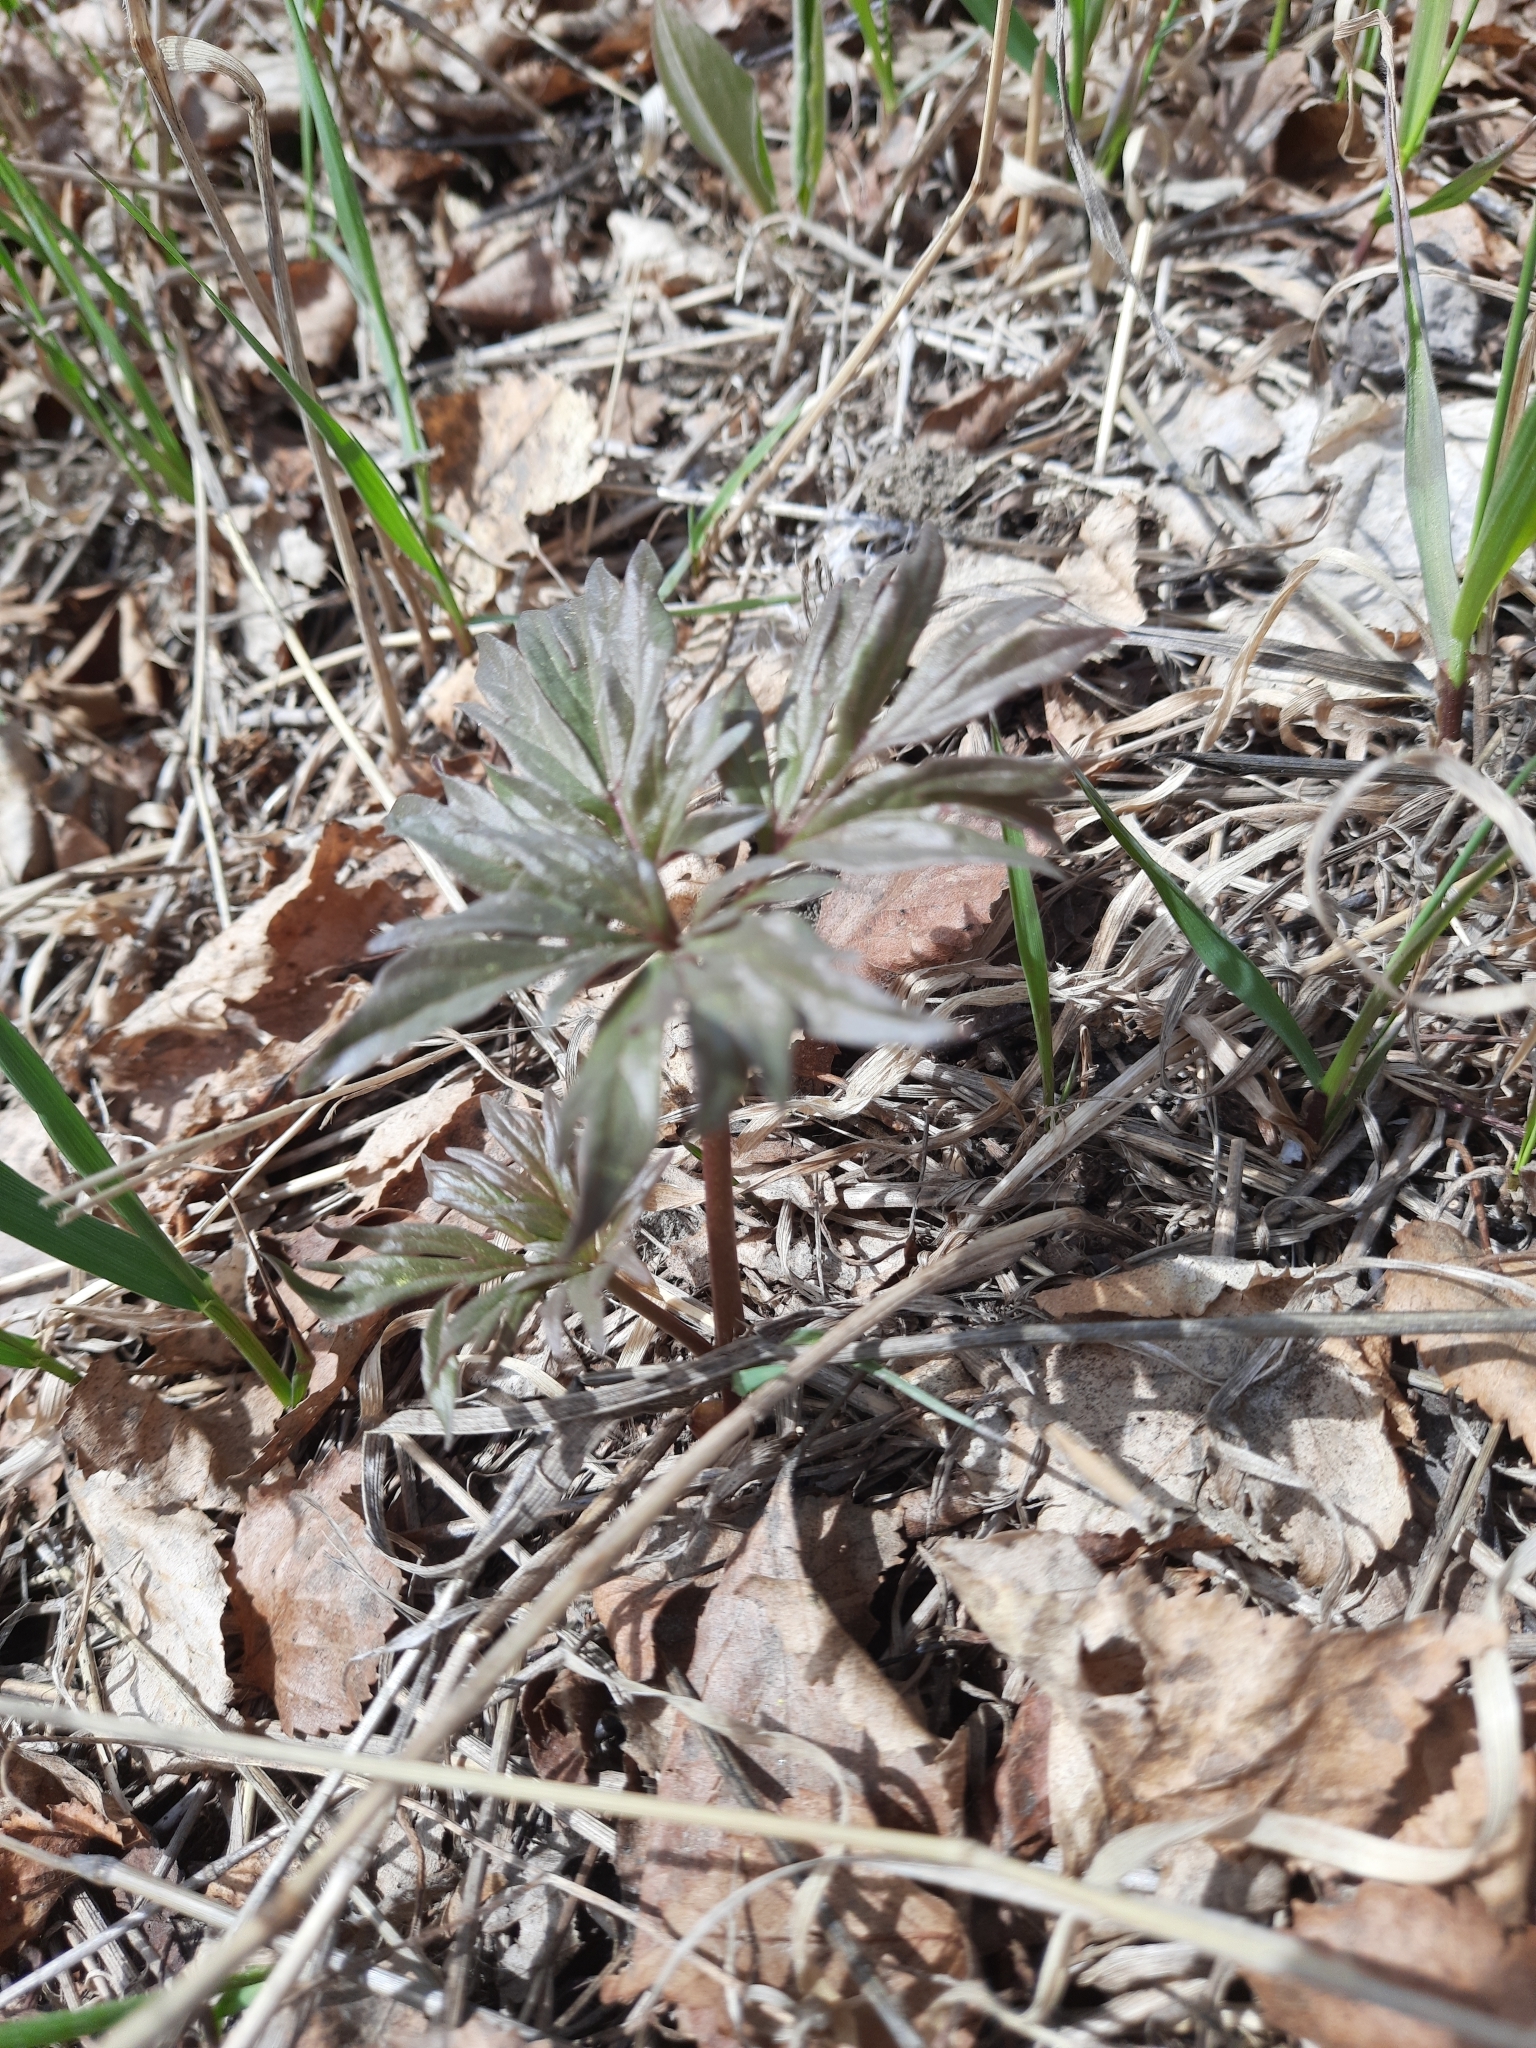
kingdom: Plantae
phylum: Tracheophyta
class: Magnoliopsida
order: Saxifragales
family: Paeoniaceae
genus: Paeonia
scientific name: Paeonia anomala
